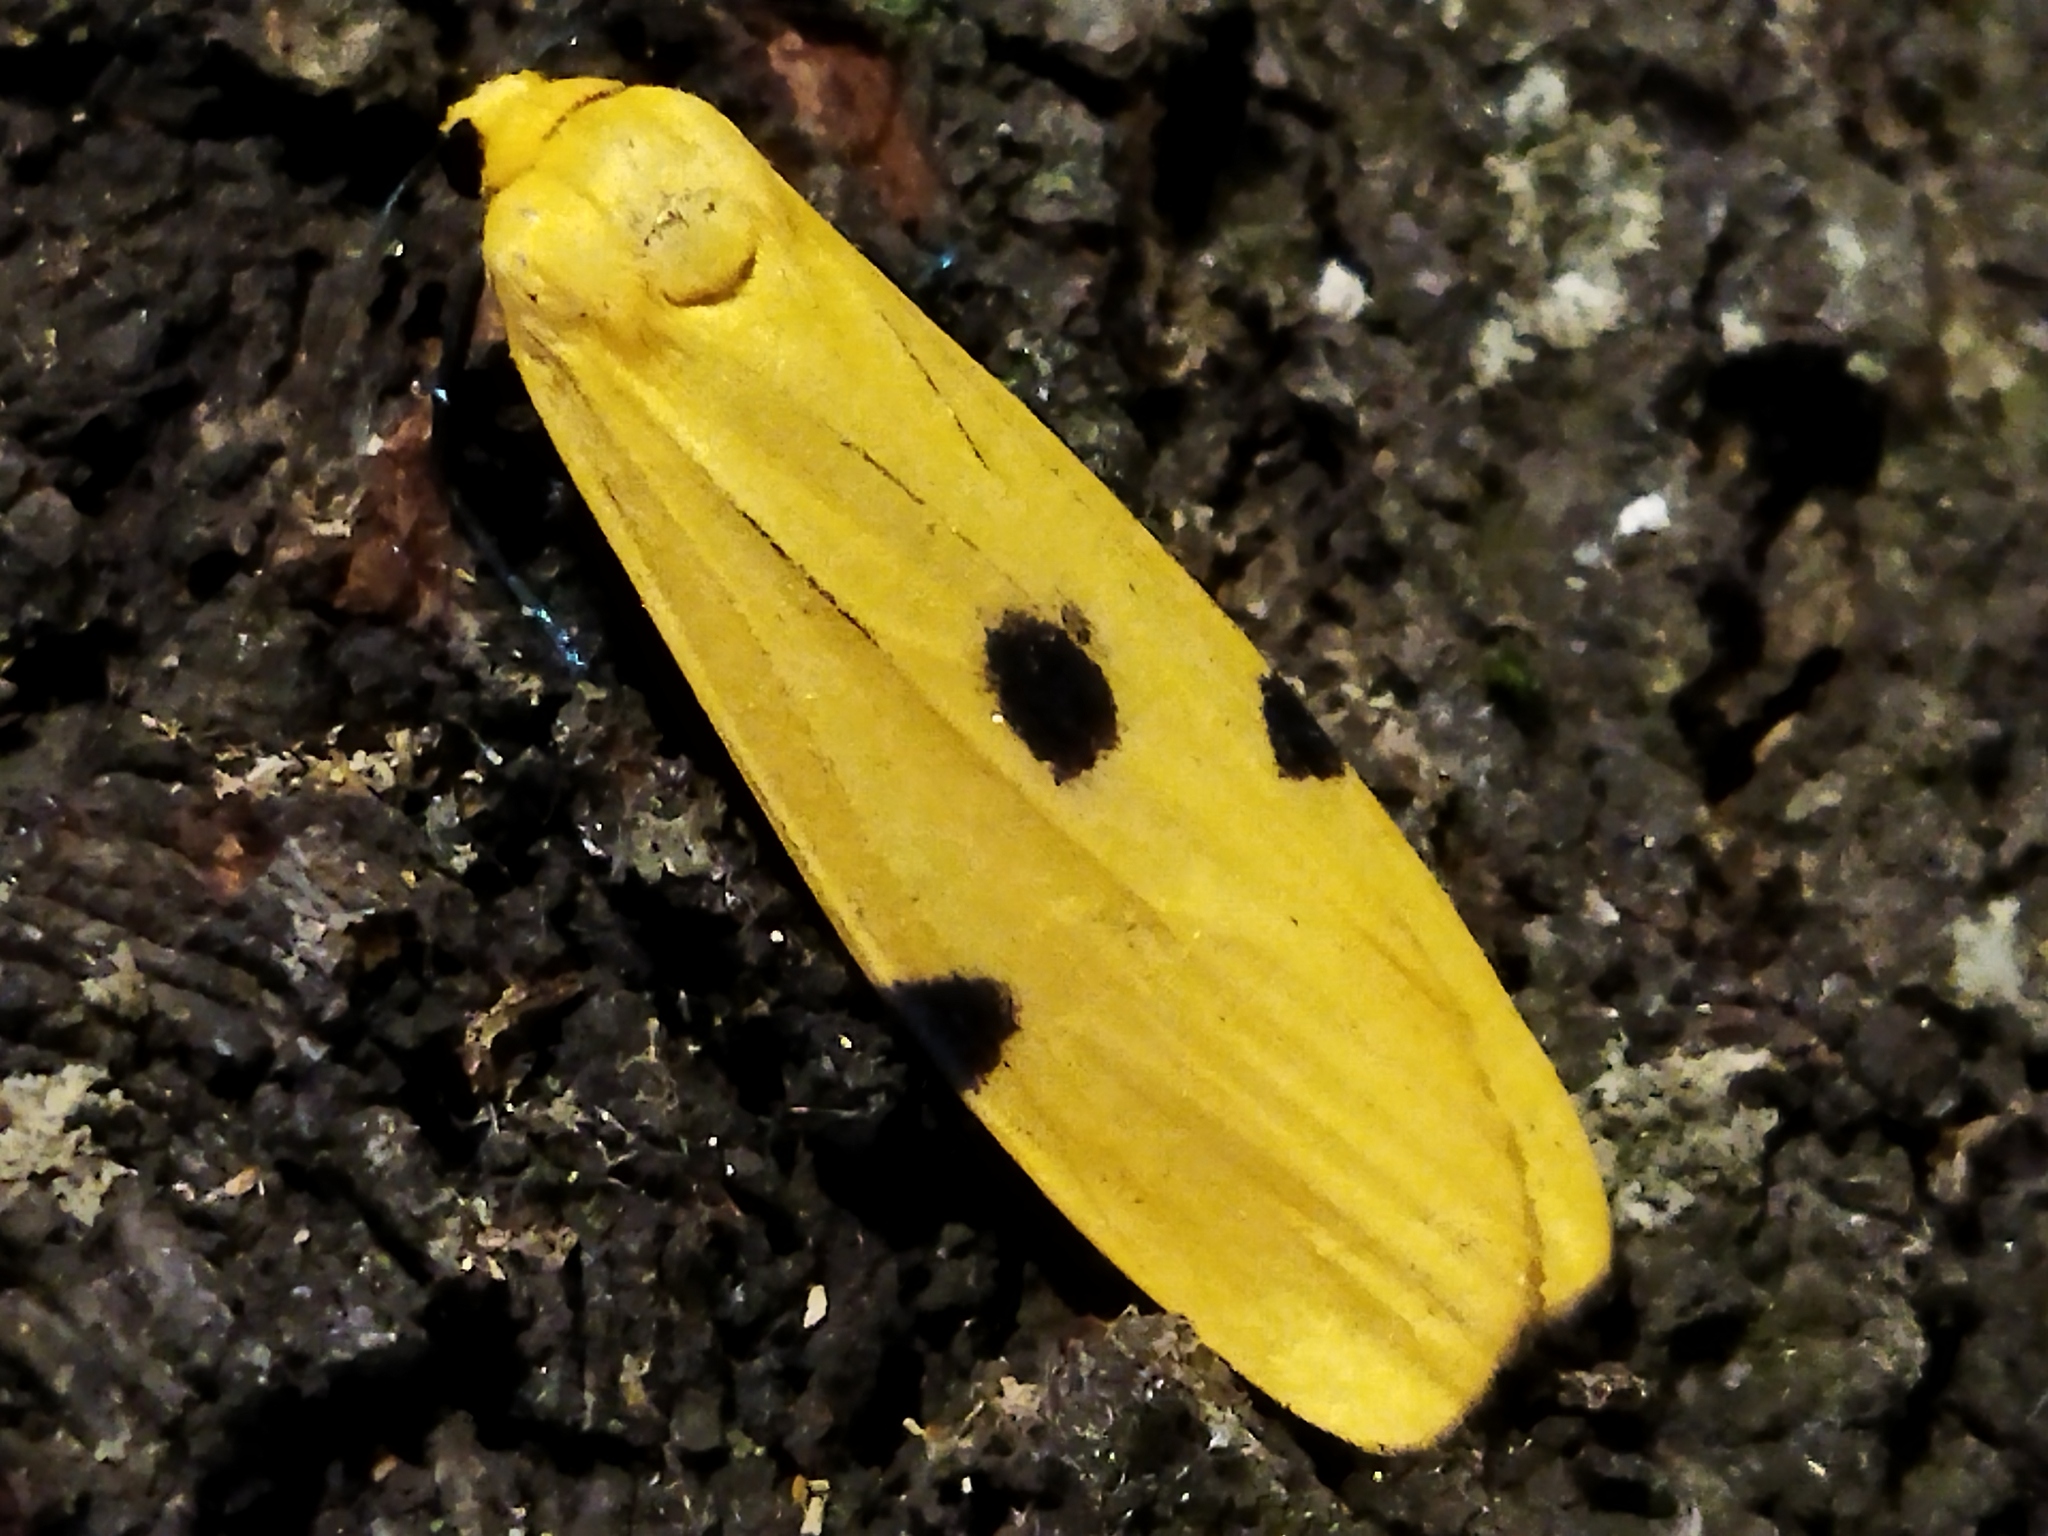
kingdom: Animalia
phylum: Arthropoda
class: Insecta
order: Lepidoptera
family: Erebidae
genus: Lithosia
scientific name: Lithosia quadra
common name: Four-spotted footman
